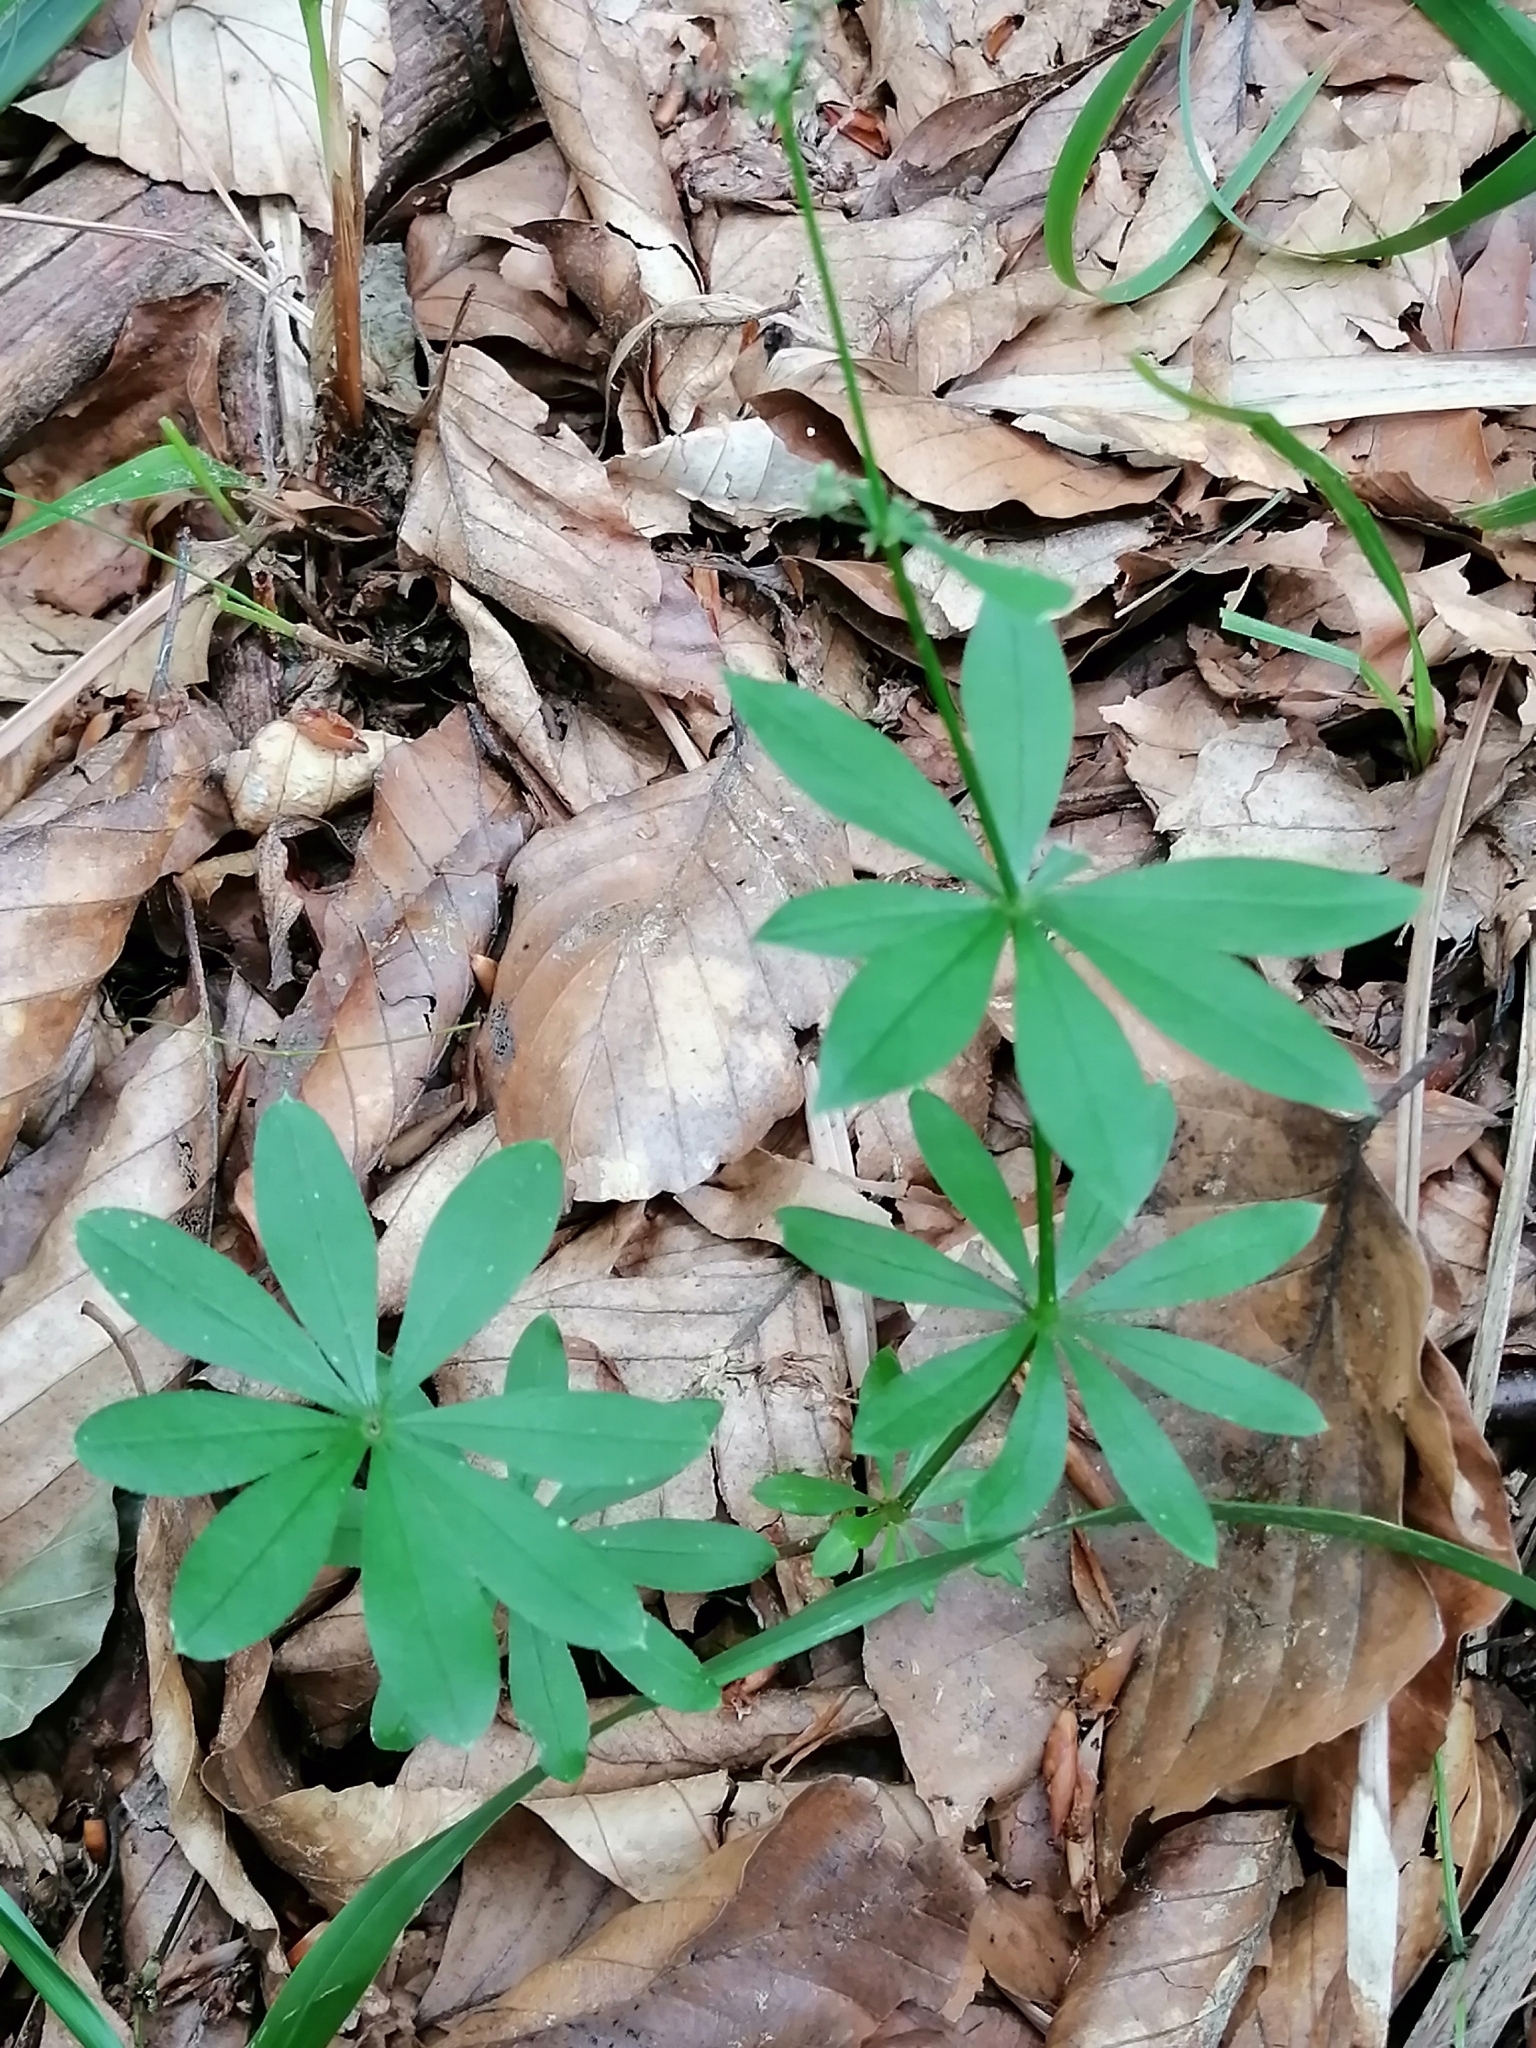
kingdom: Plantae
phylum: Tracheophyta
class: Magnoliopsida
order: Gentianales
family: Rubiaceae
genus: Galium
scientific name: Galium odoratum
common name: Sweet woodruff
